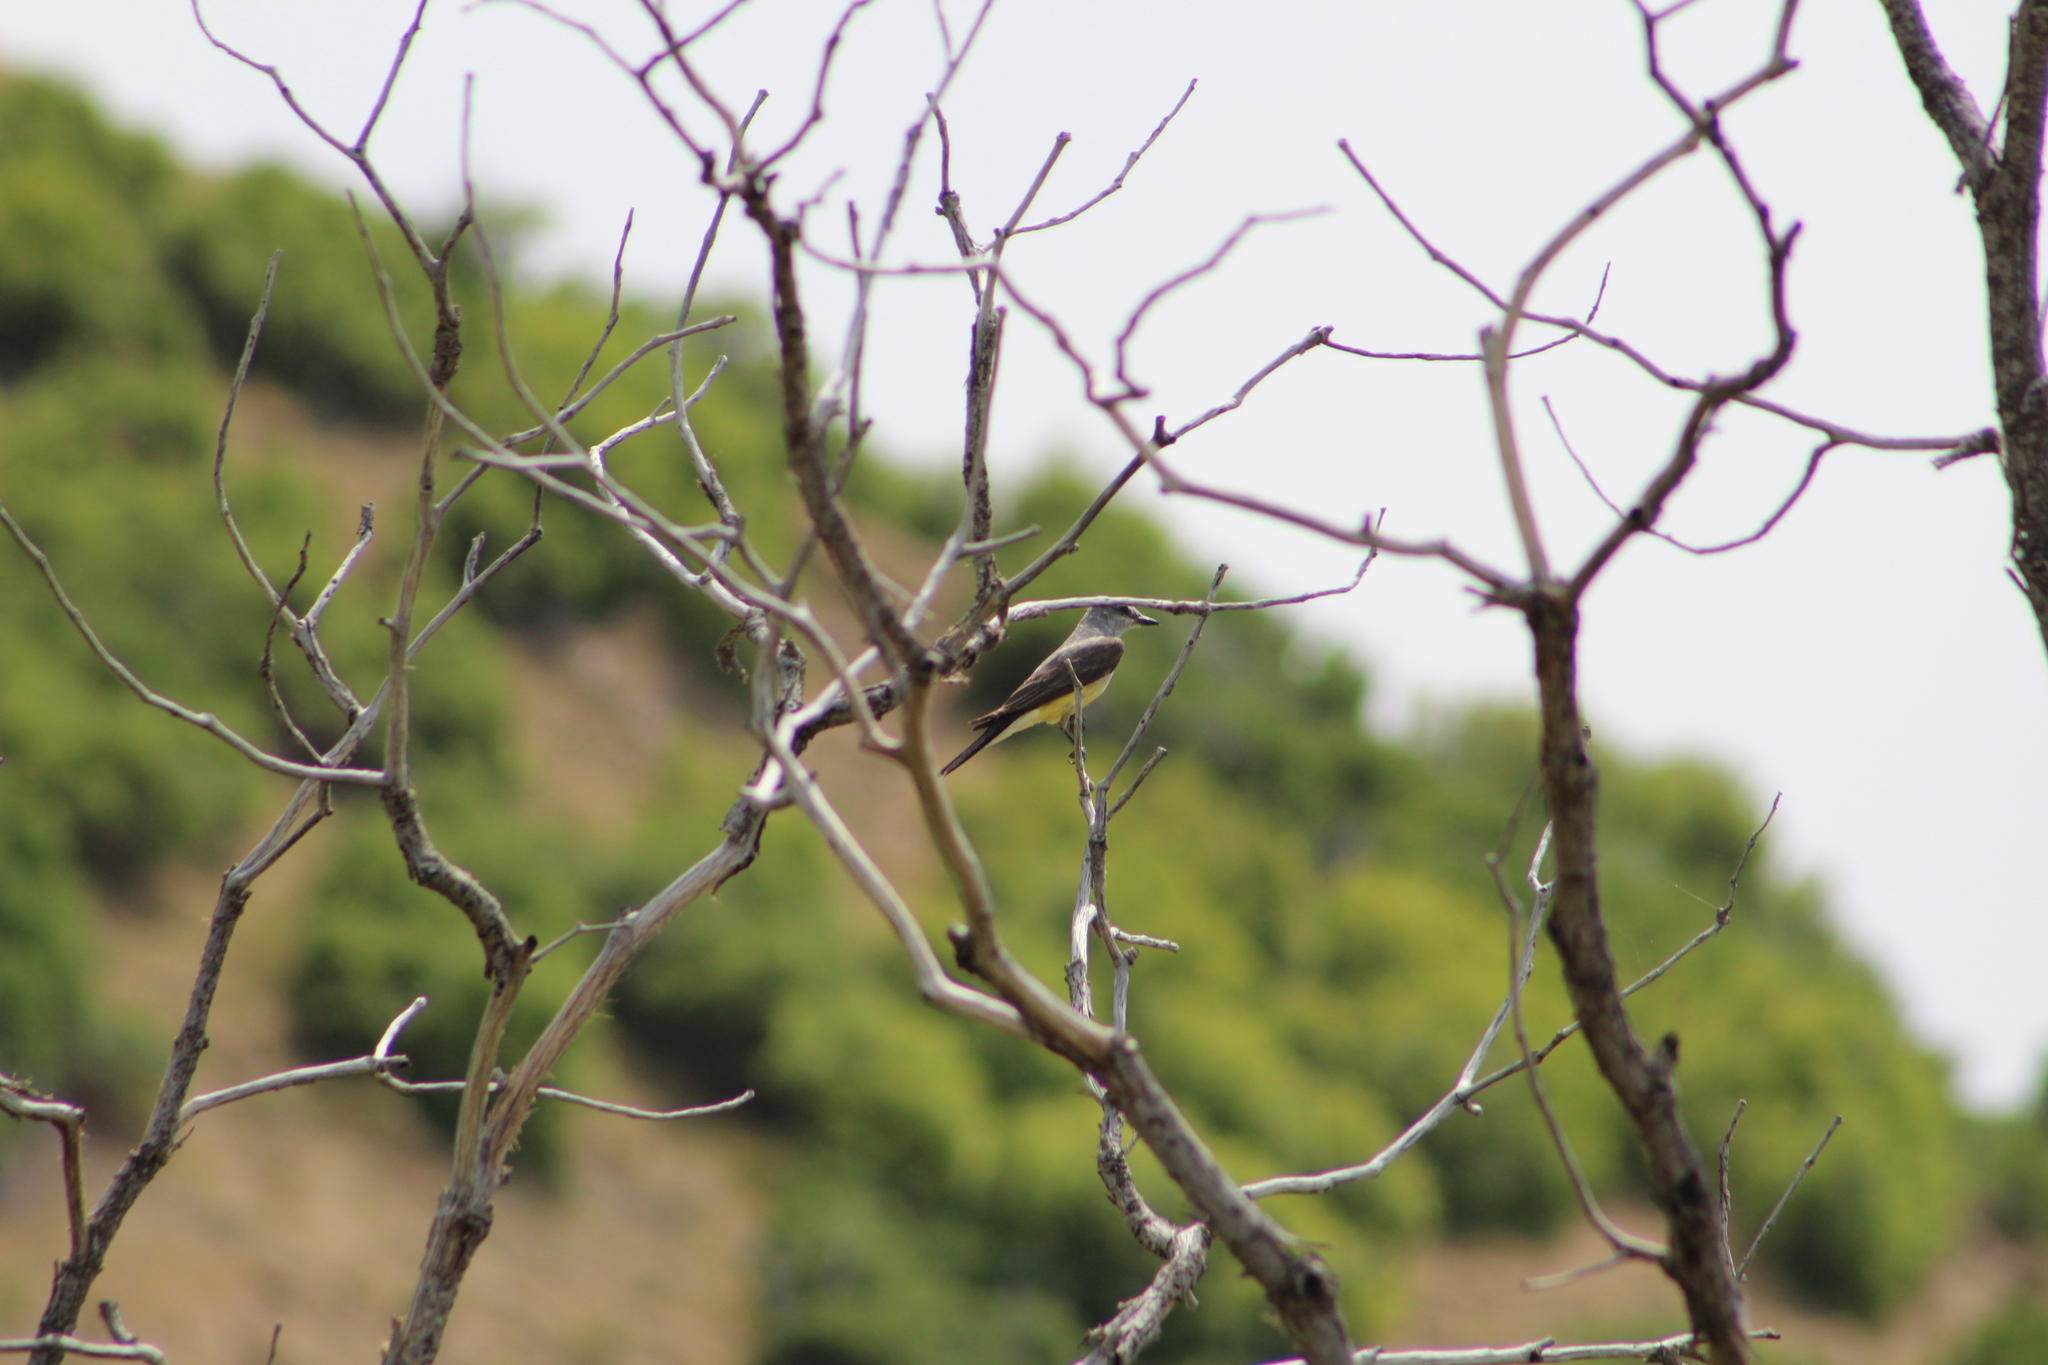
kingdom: Animalia
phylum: Chordata
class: Aves
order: Passeriformes
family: Tyrannidae
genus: Tyrannus
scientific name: Tyrannus verticalis
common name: Western kingbird
